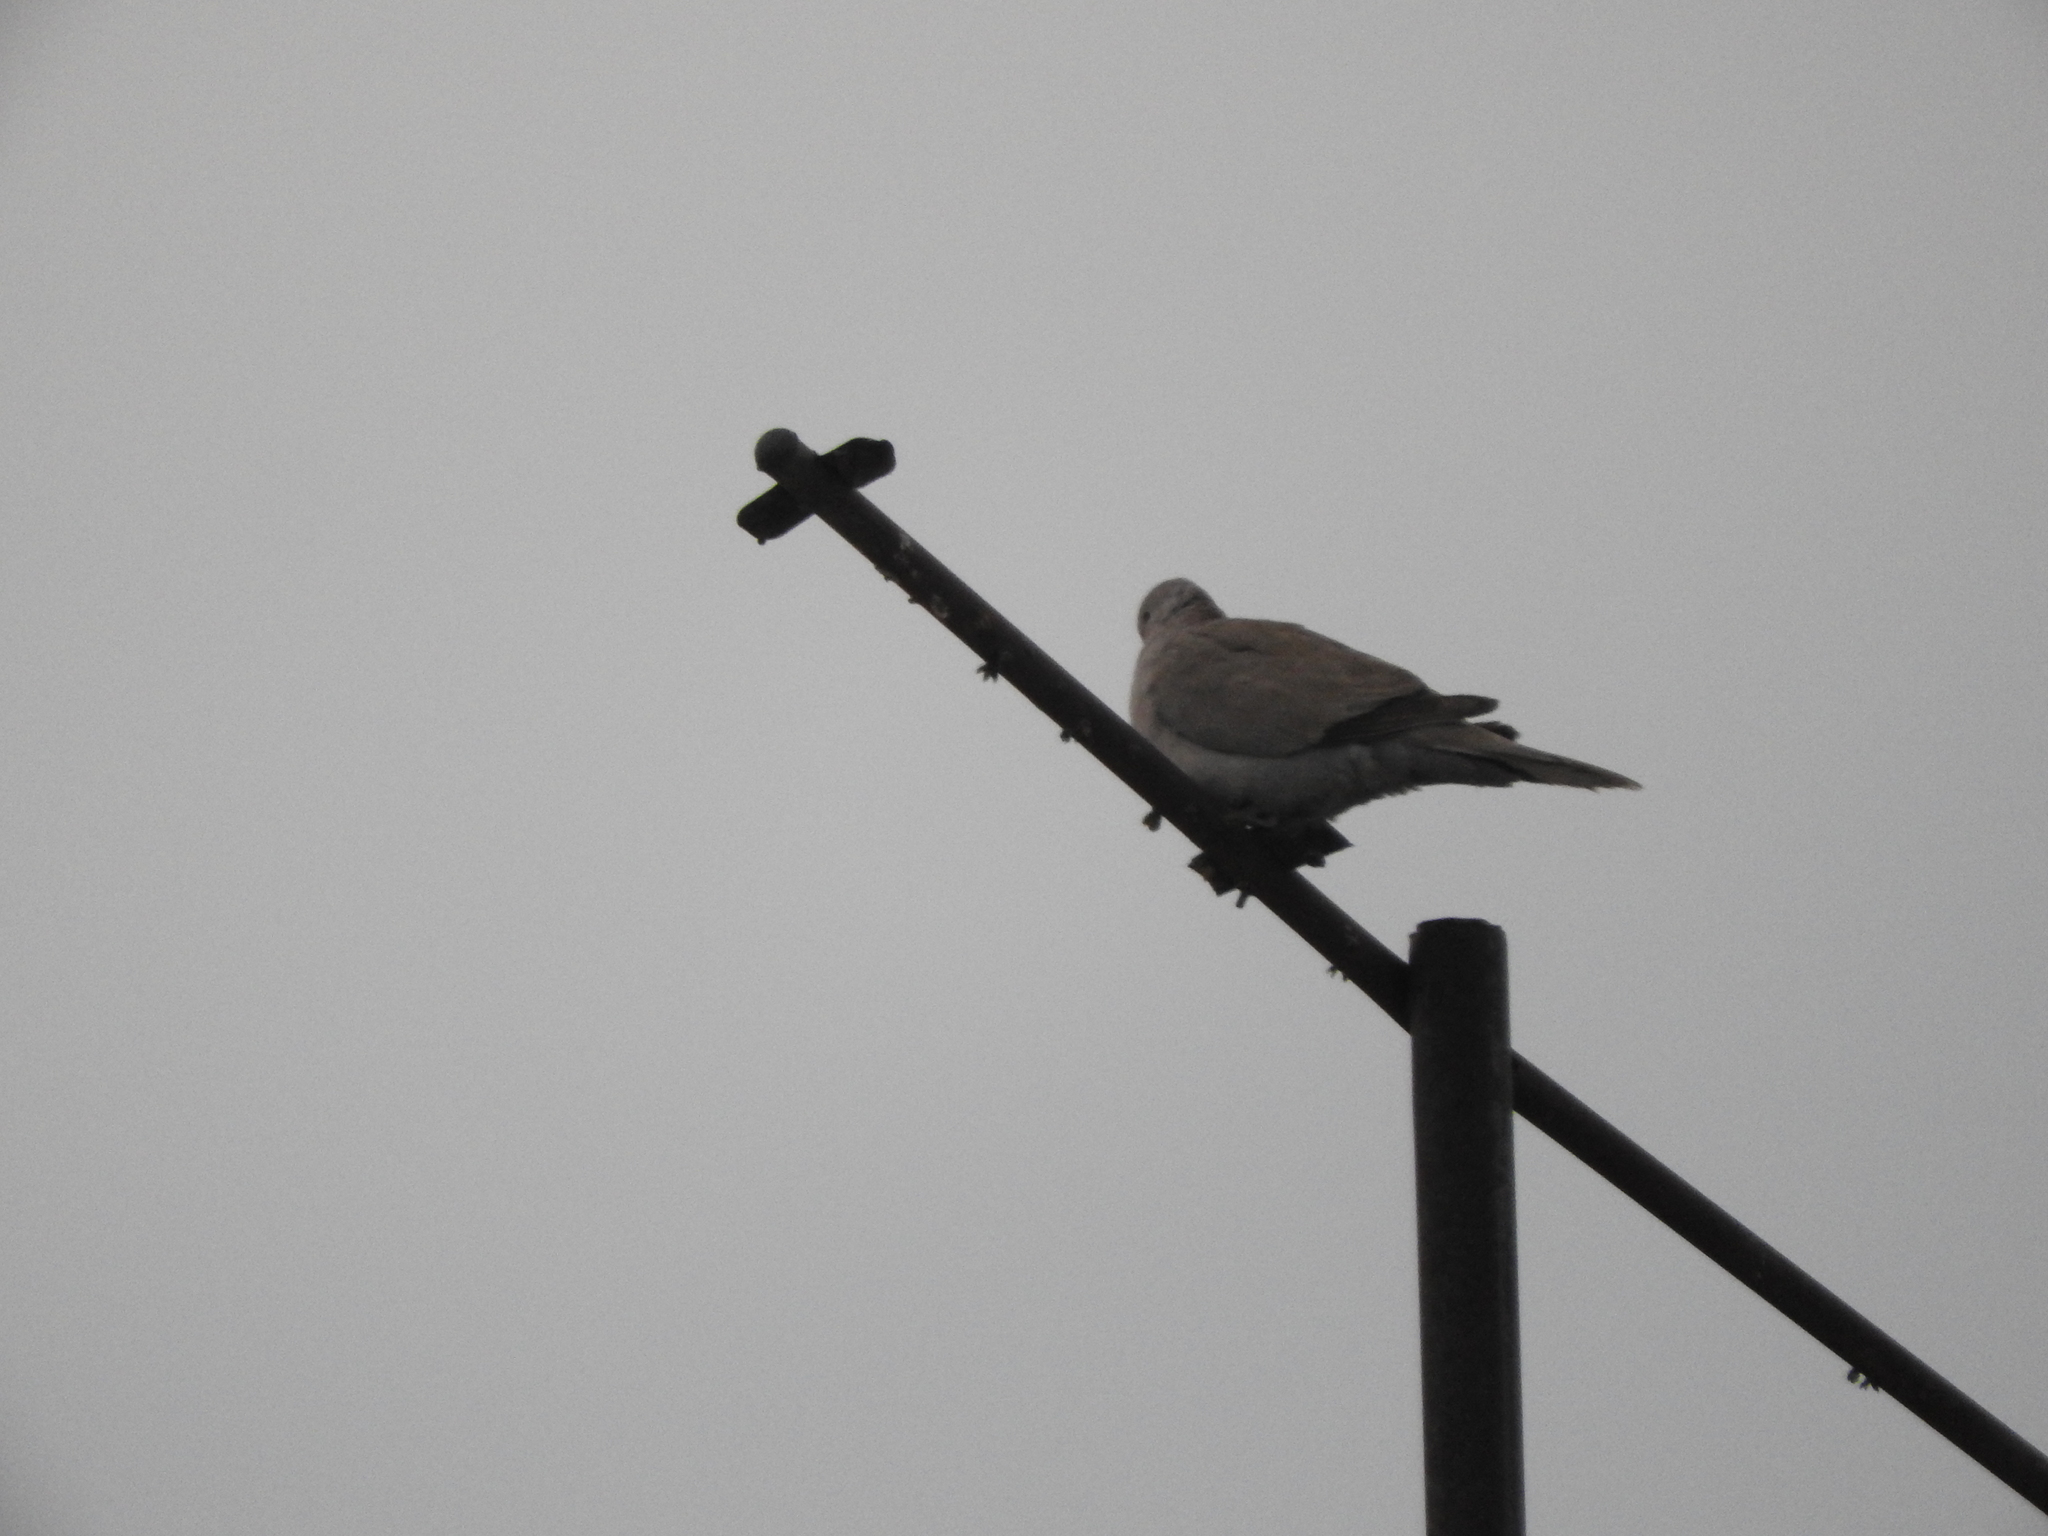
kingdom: Animalia
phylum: Chordata
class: Aves
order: Columbiformes
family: Columbidae
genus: Streptopelia
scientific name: Streptopelia decaocto
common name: Eurasian collared dove
